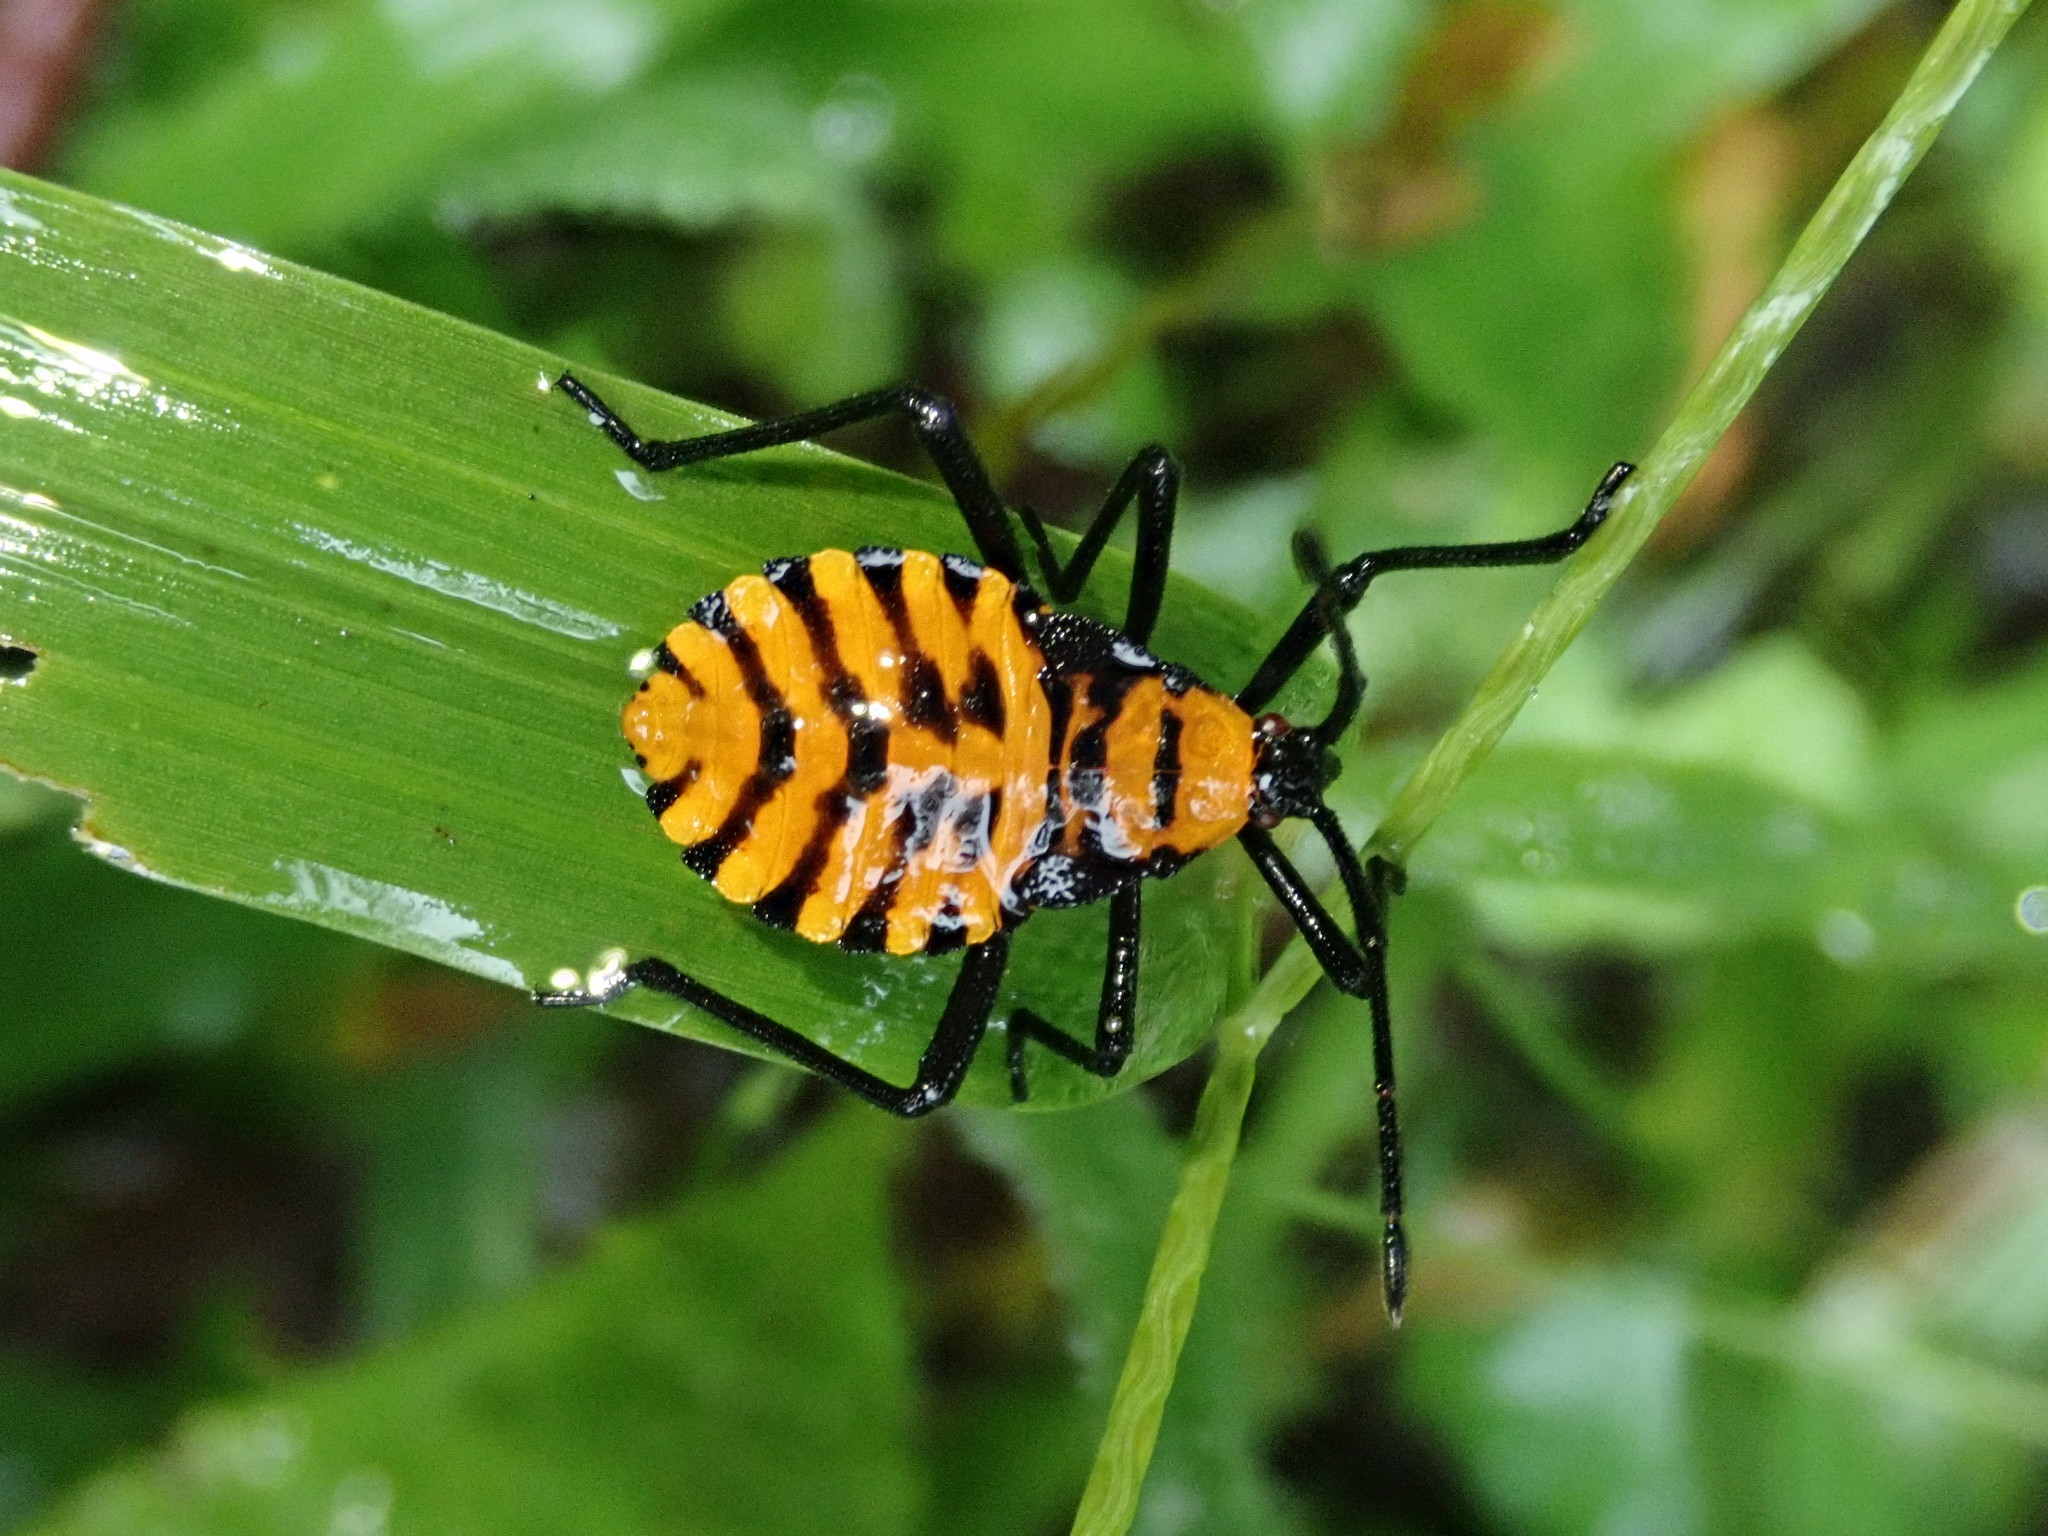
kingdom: Animalia
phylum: Arthropoda
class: Insecta
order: Hemiptera
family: Coreidae
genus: Spartocera
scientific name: Spartocera pantomima
